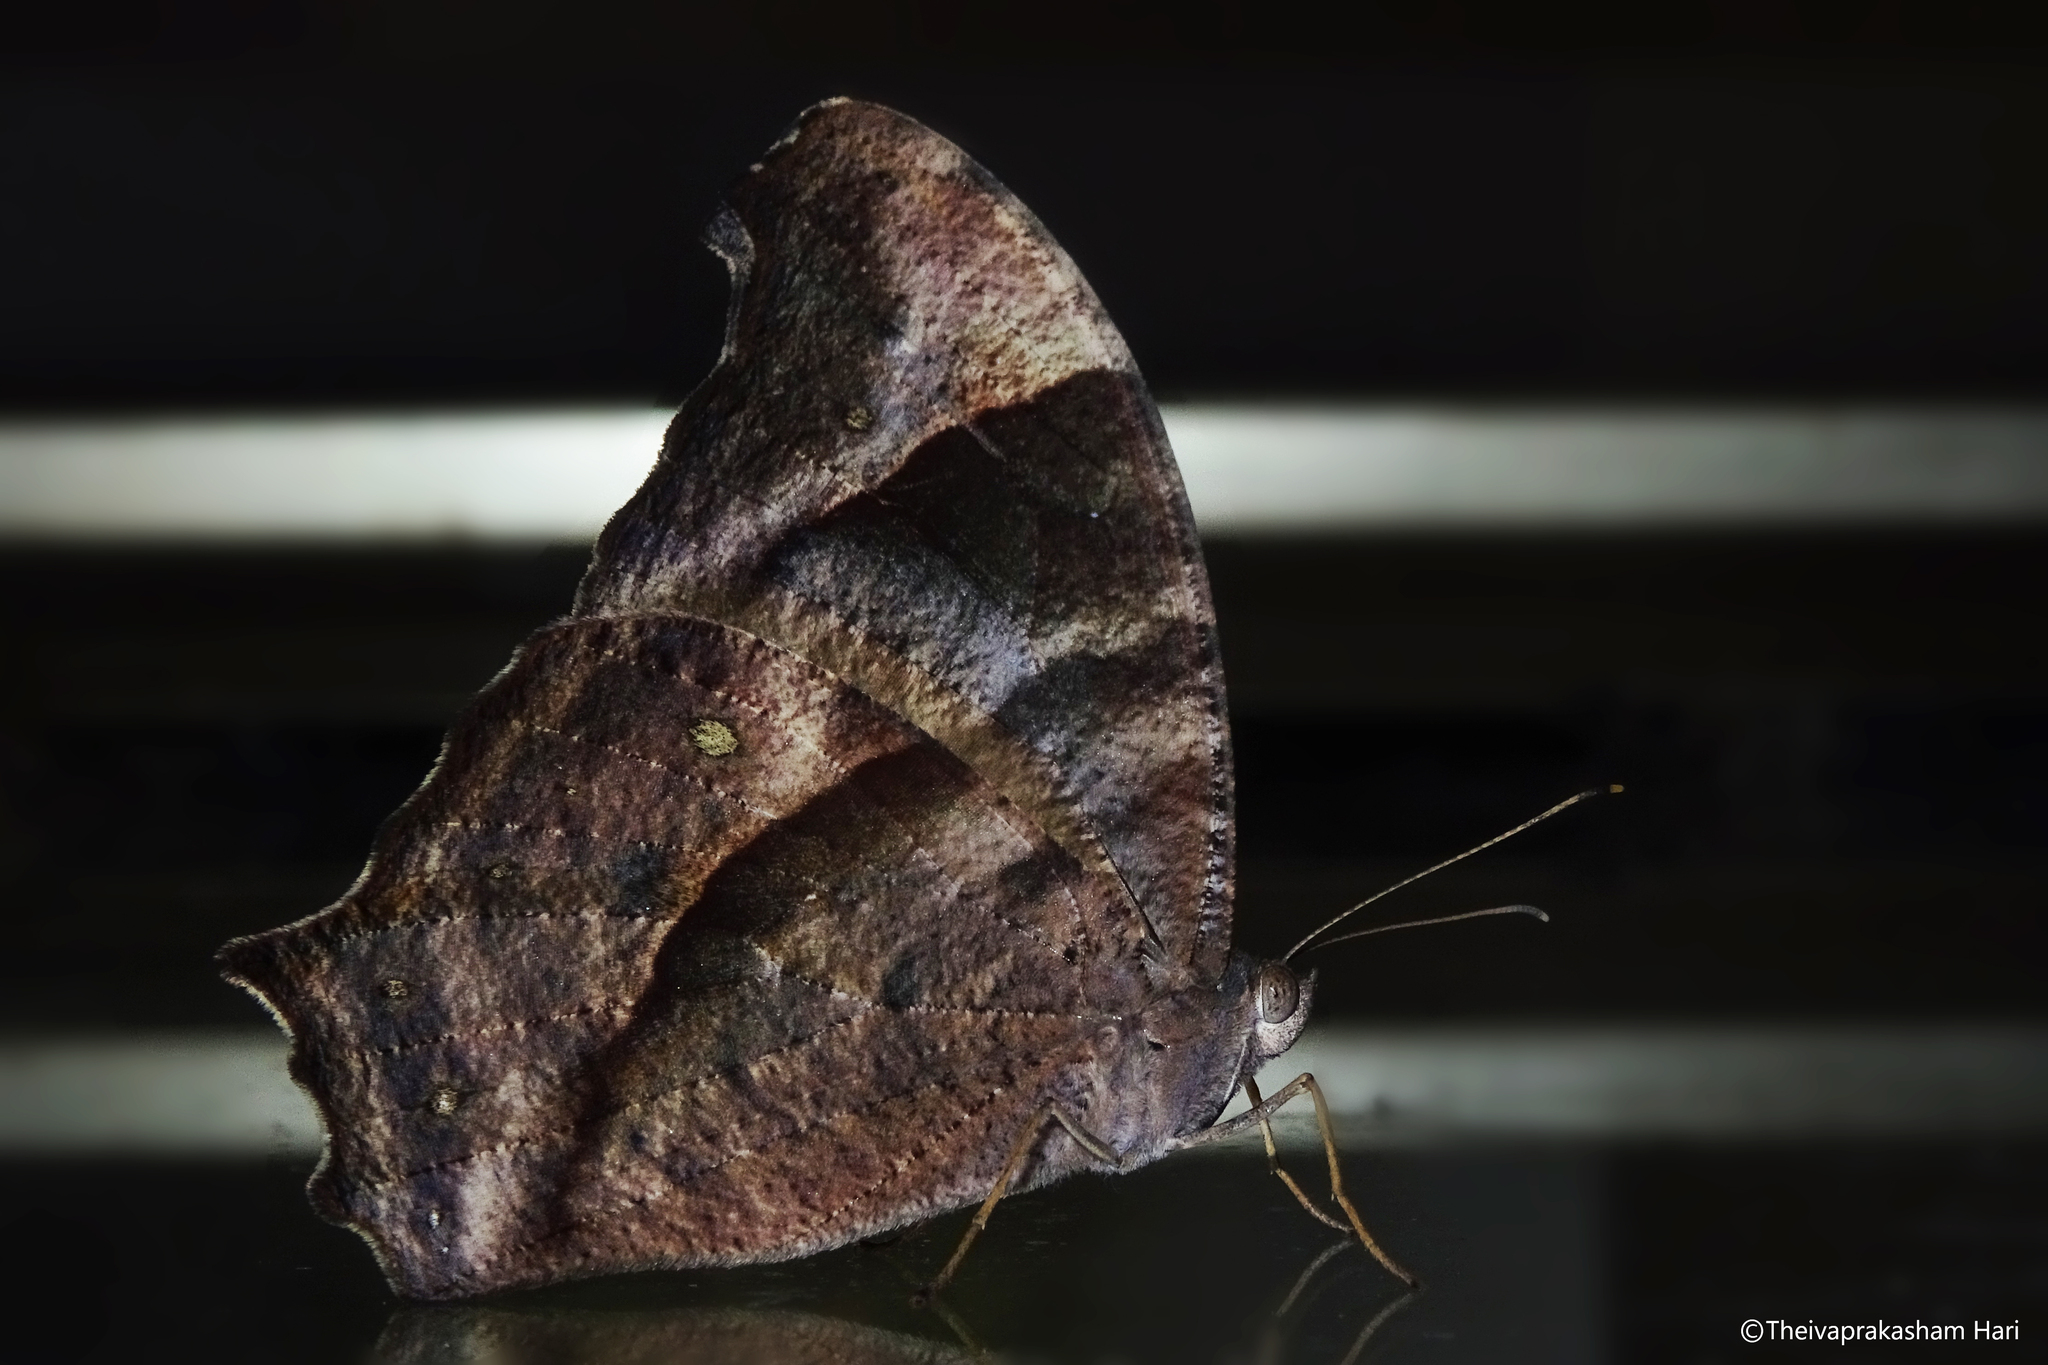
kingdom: Animalia
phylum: Arthropoda
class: Insecta
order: Lepidoptera
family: Nymphalidae
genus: Melanitis
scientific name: Melanitis leda
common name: Twilight brown
